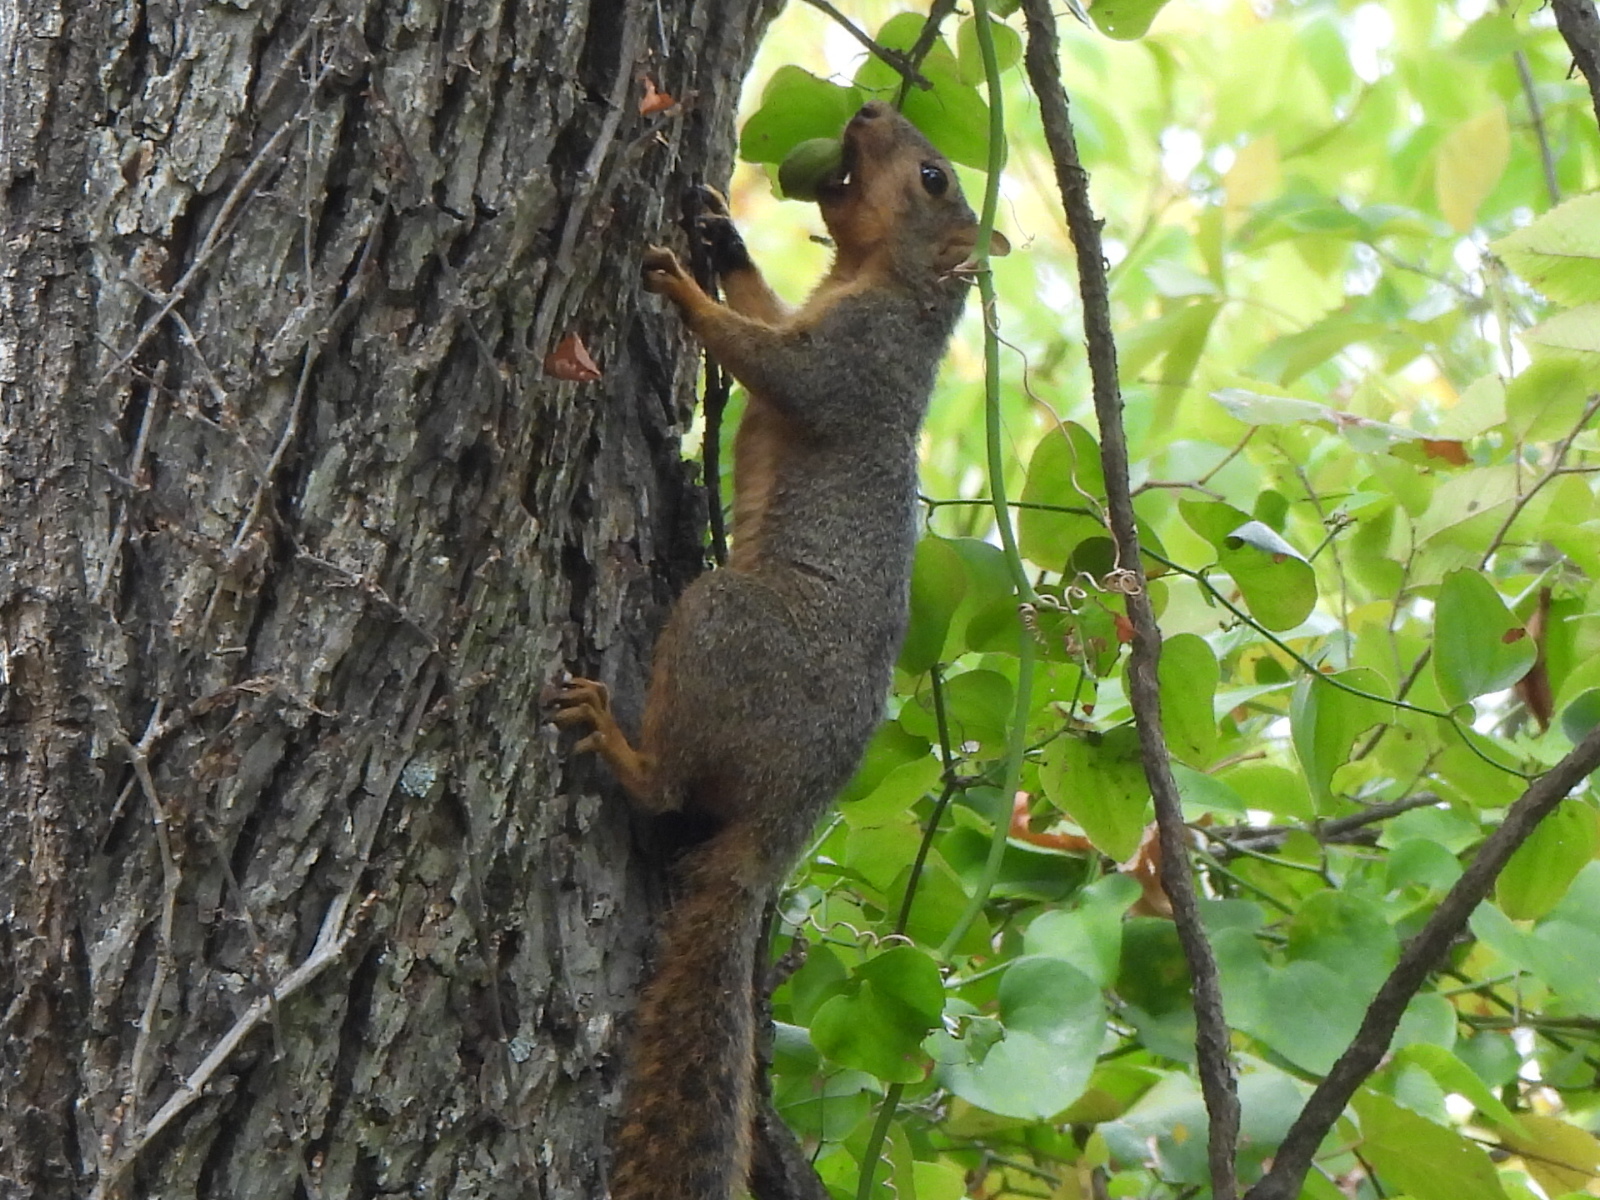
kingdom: Animalia
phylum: Chordata
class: Mammalia
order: Rodentia
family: Sciuridae
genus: Sciurus
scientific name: Sciurus niger
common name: Fox squirrel
